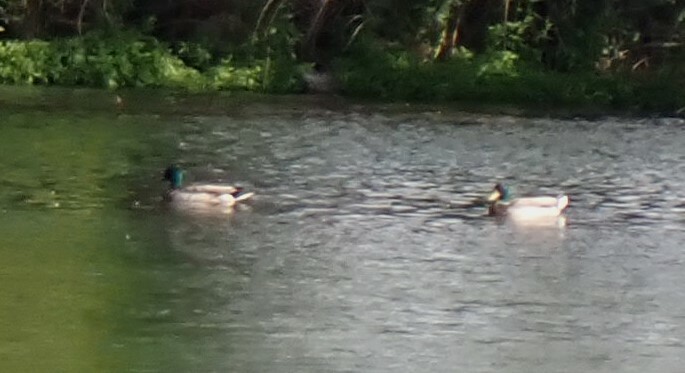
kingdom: Animalia
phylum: Chordata
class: Aves
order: Anseriformes
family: Anatidae
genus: Anas
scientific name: Anas platyrhynchos
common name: Mallard
